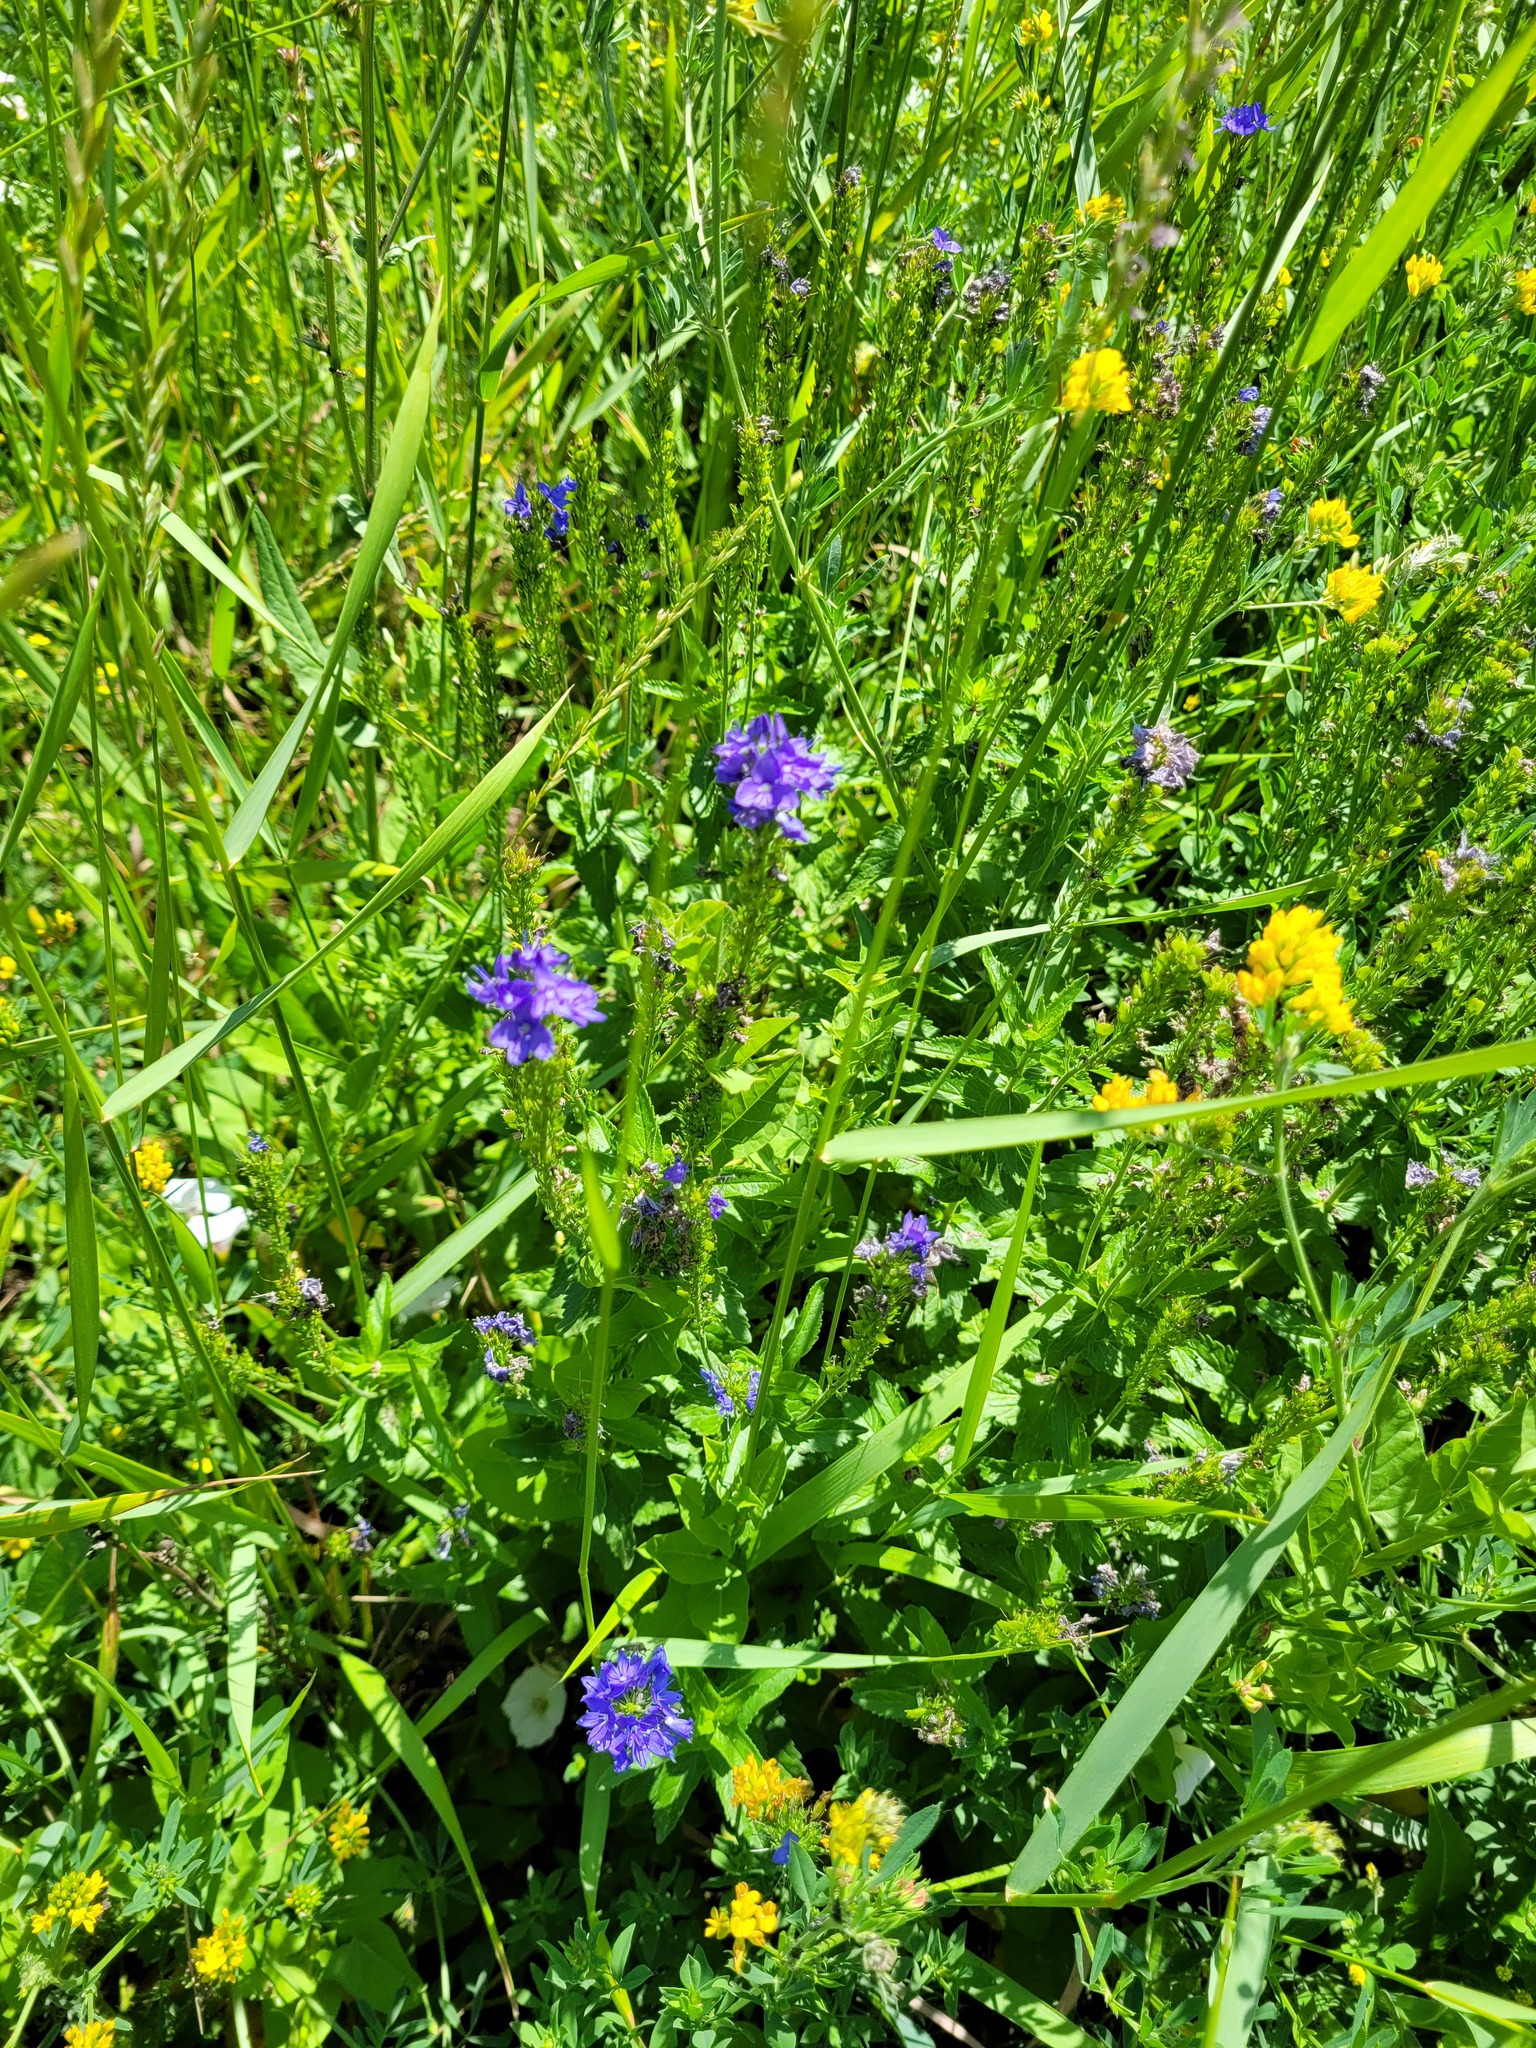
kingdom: Plantae
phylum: Tracheophyta
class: Magnoliopsida
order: Lamiales
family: Plantaginaceae
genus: Veronica
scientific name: Veronica teucrium
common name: Large speedwell
